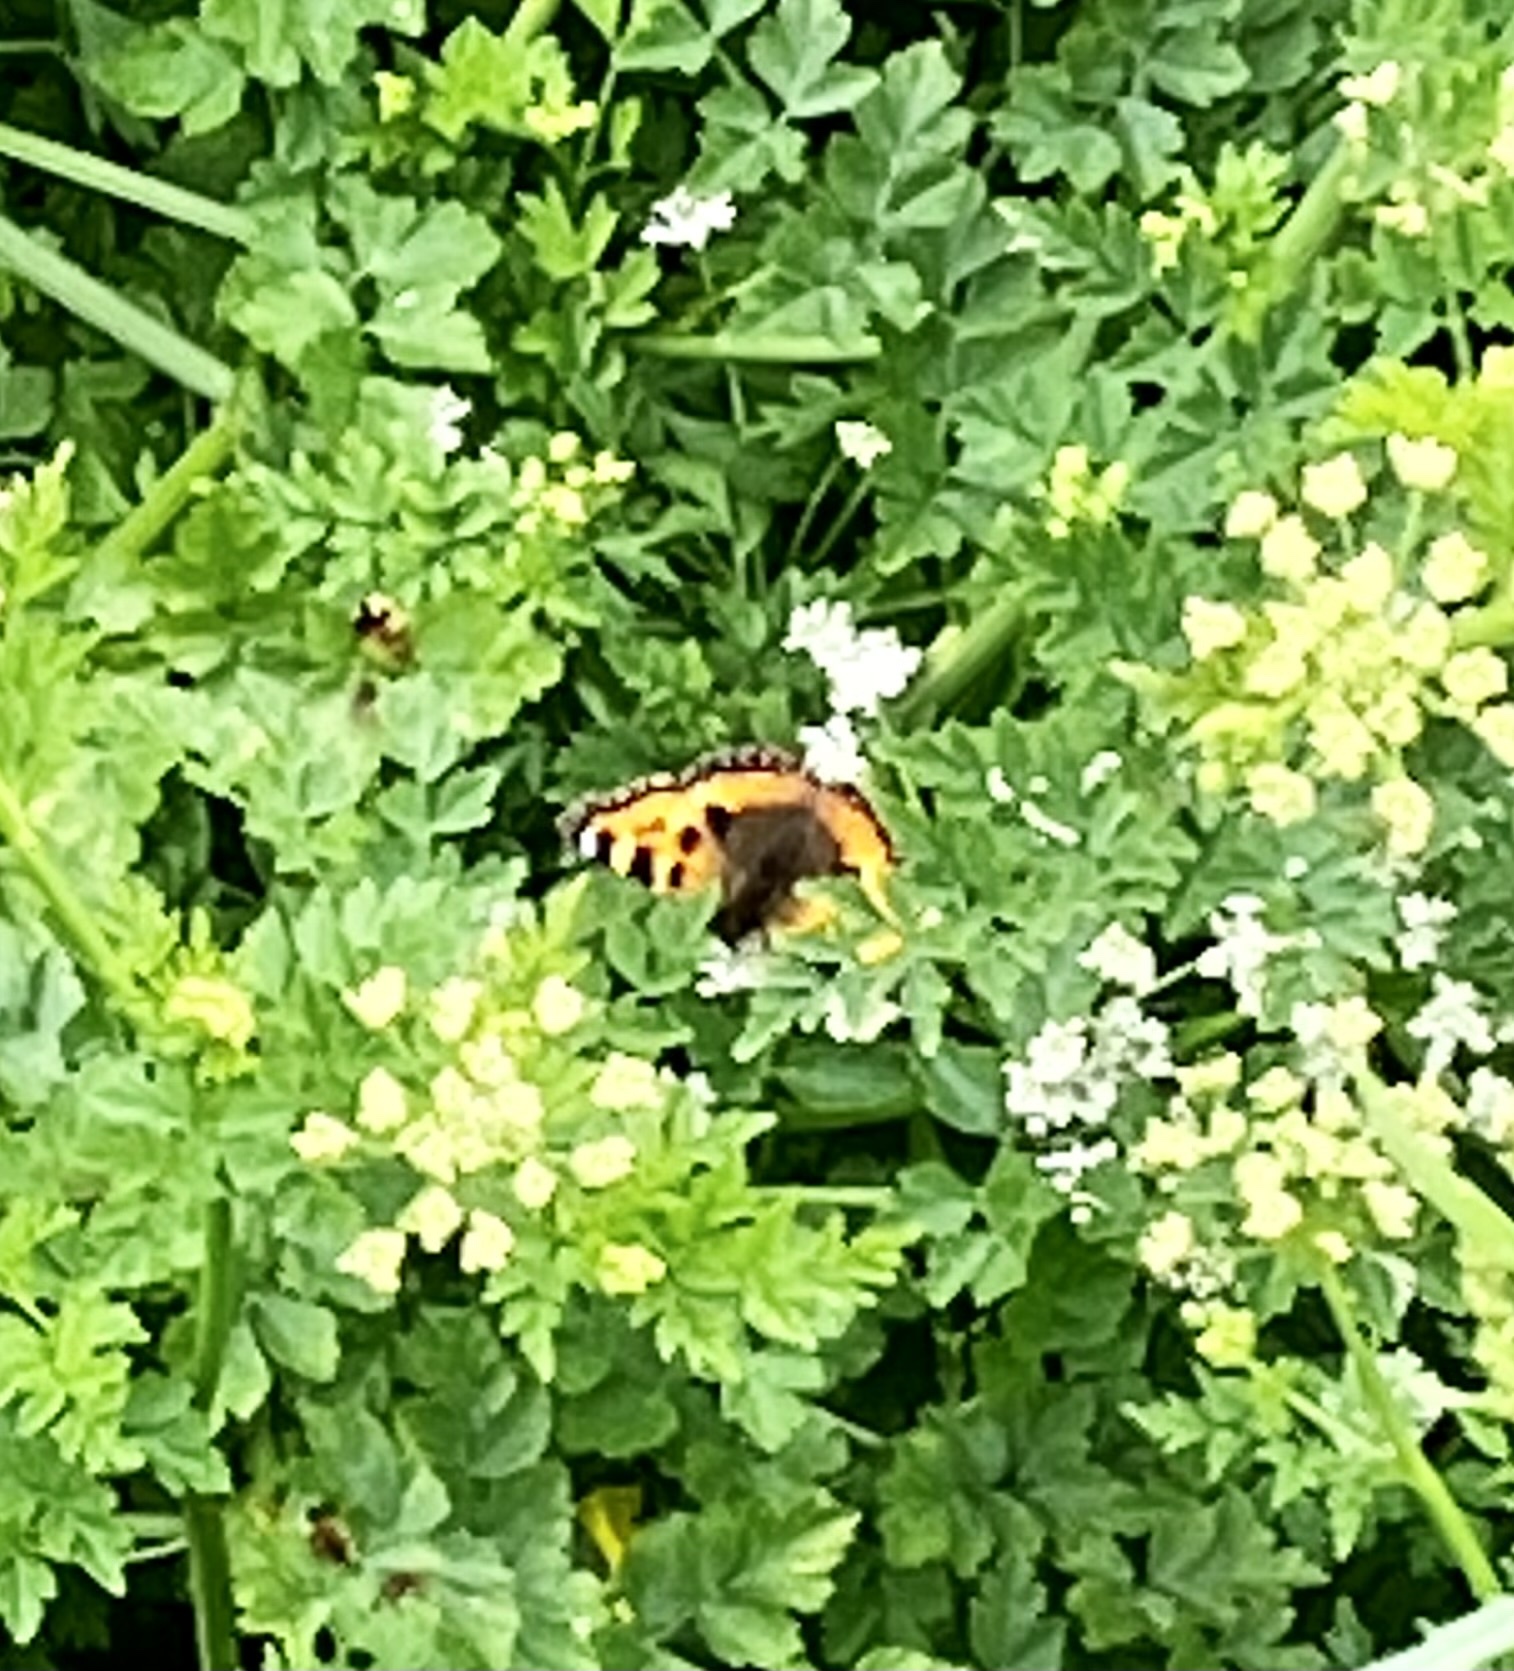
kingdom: Animalia
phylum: Arthropoda
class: Insecta
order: Lepidoptera
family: Nymphalidae
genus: Aglais
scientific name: Aglais urticae
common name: Small tortoiseshell
